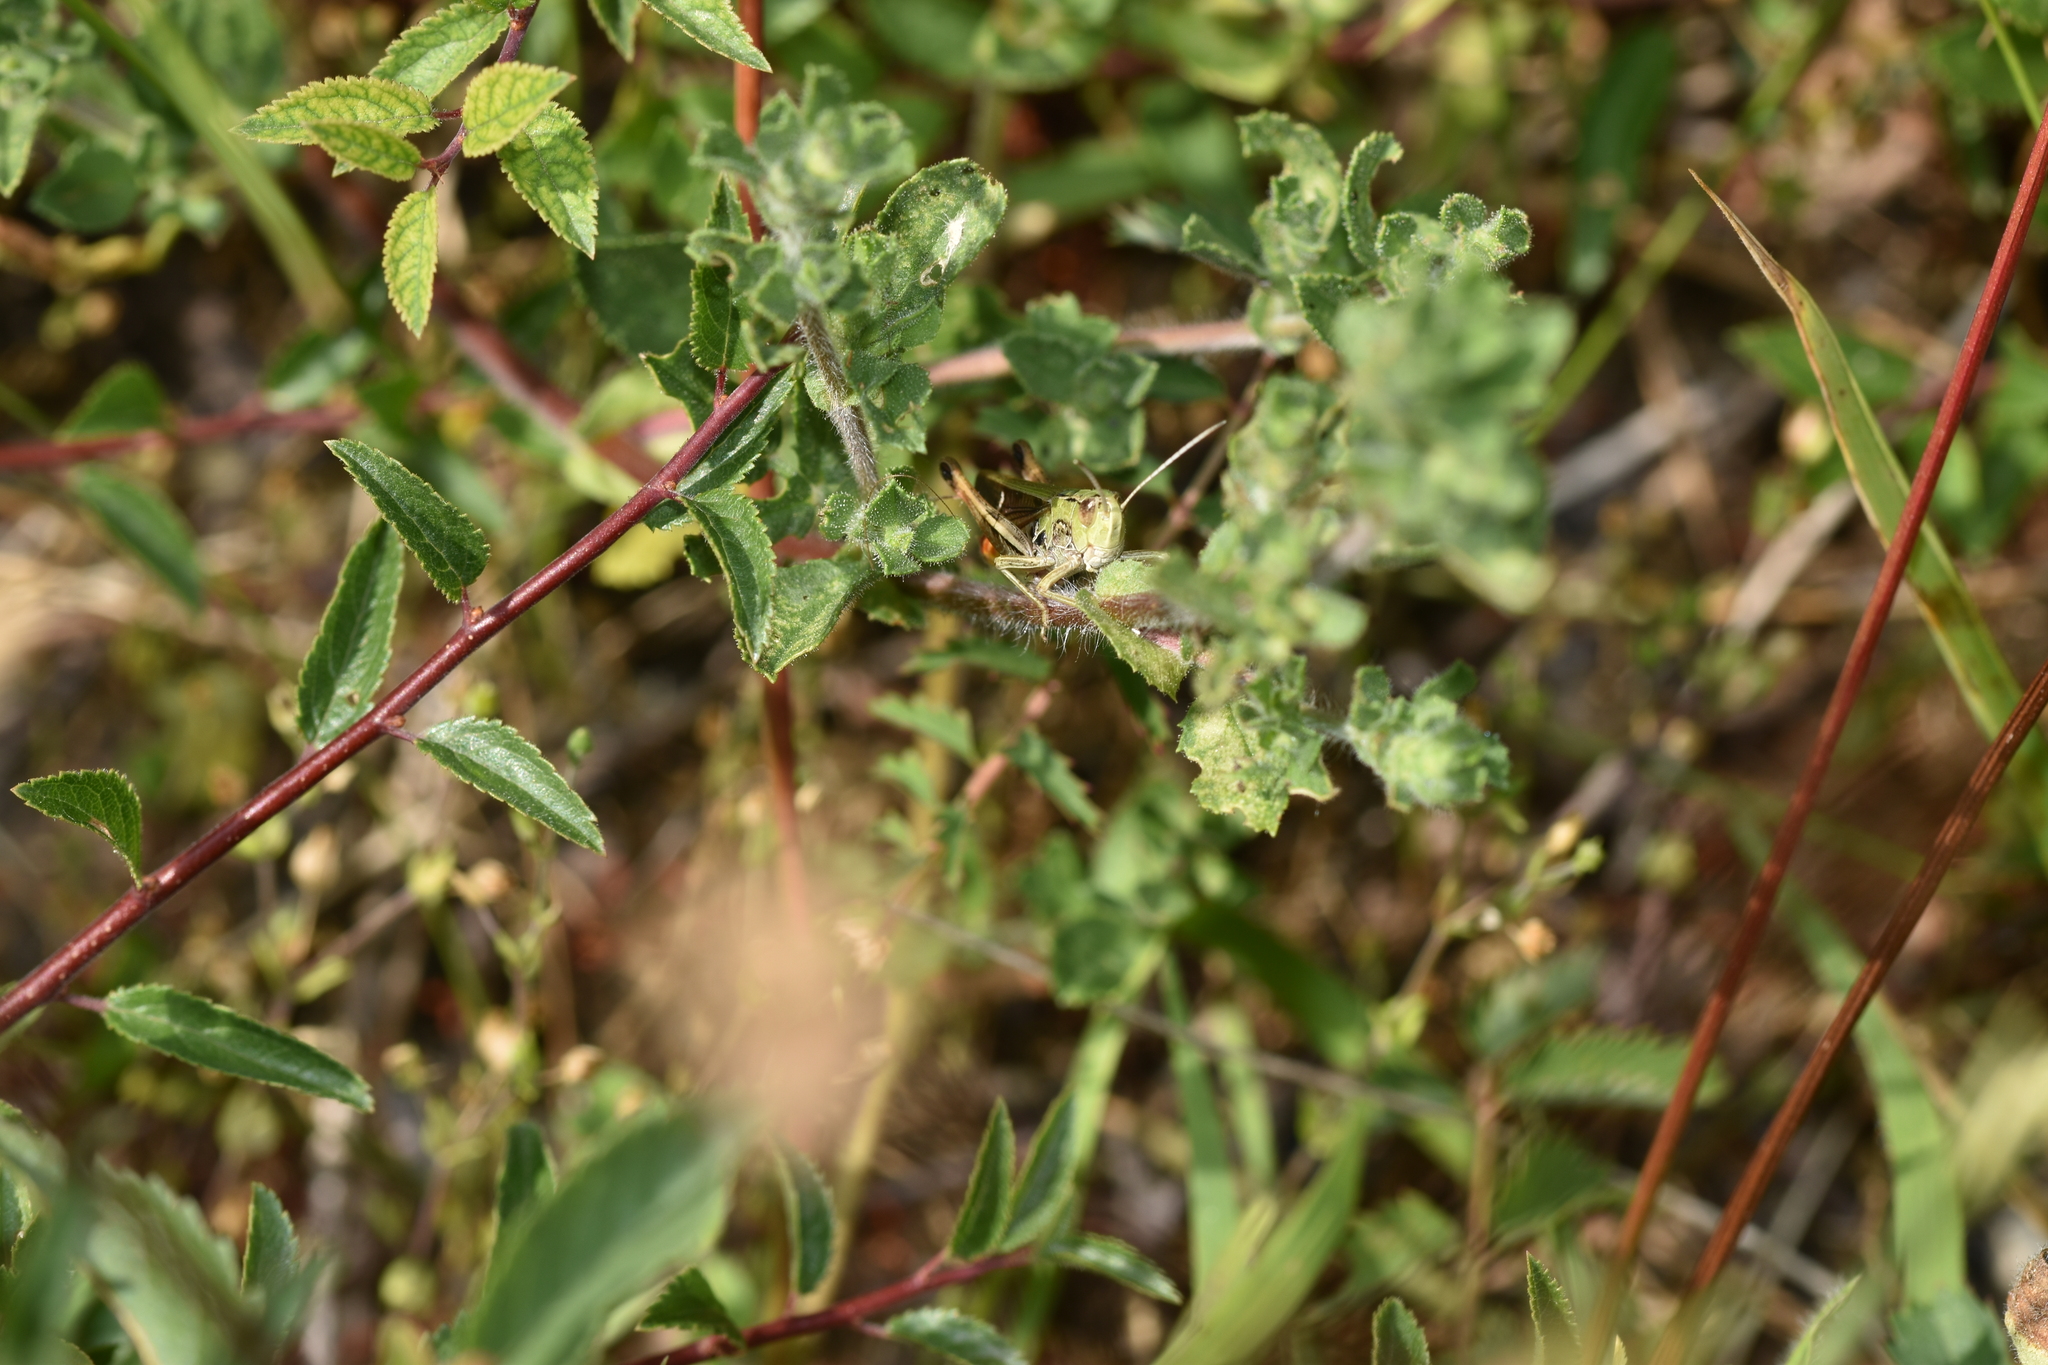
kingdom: Animalia
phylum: Arthropoda
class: Insecta
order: Orthoptera
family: Acrididae
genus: Stenobothrus
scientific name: Stenobothrus lineatus
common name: Stripe-winged grasshopper
